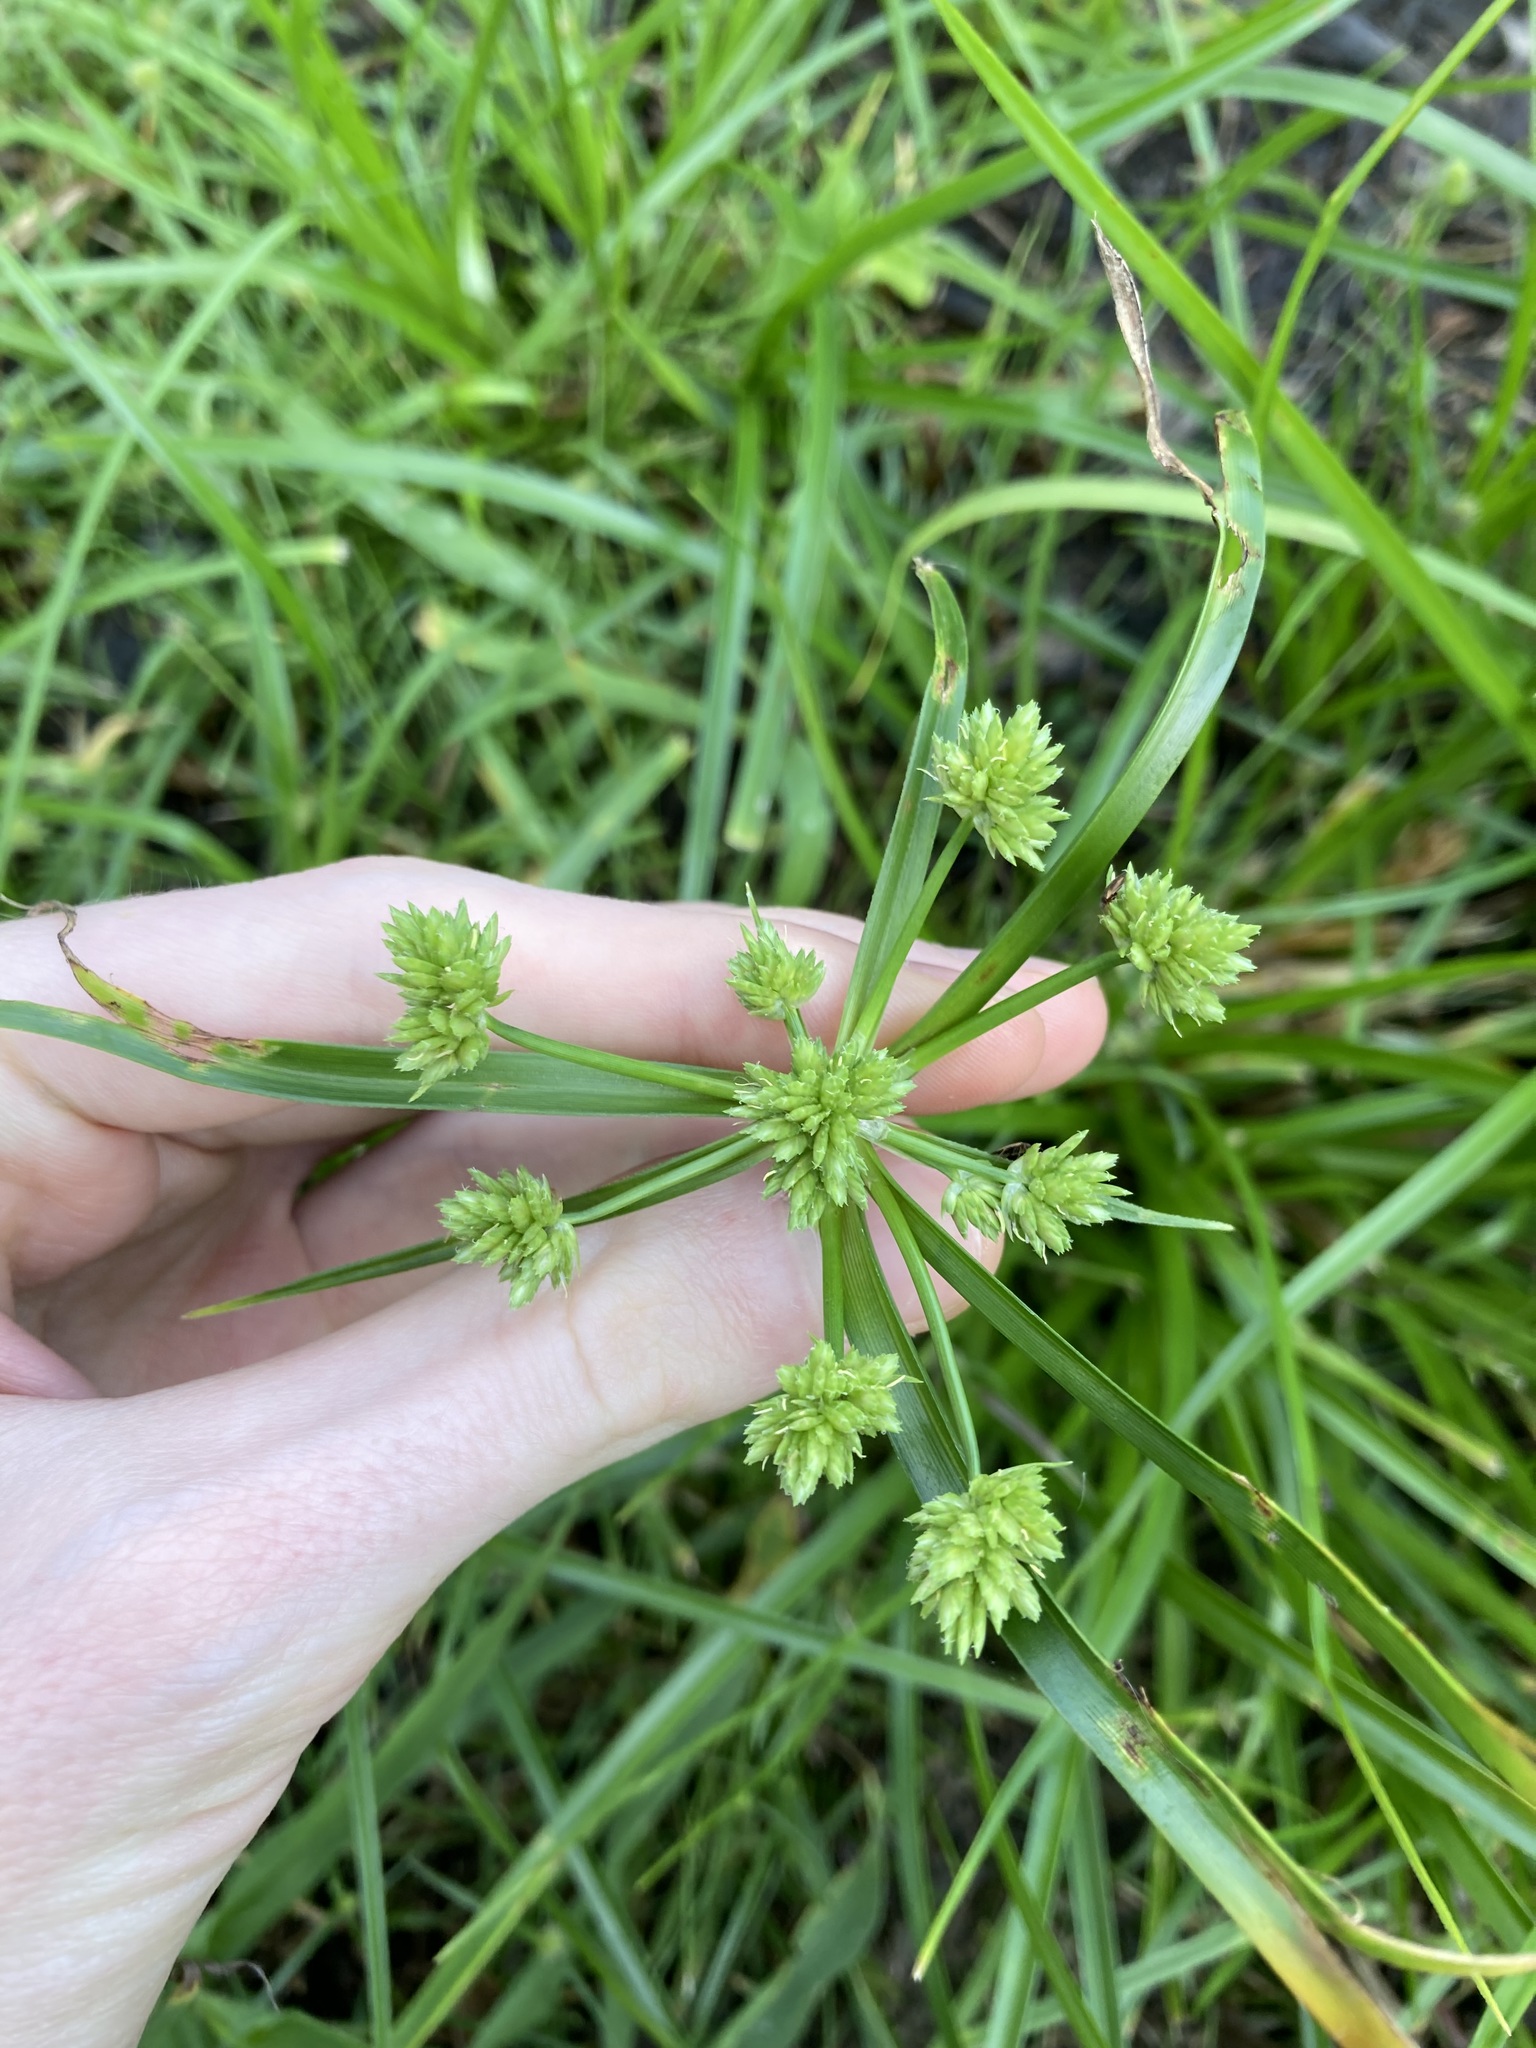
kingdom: Plantae
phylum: Tracheophyta
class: Liliopsida
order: Poales
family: Cyperaceae
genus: Cyperus
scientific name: Cyperus eragrostis
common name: Tall flatsedge
